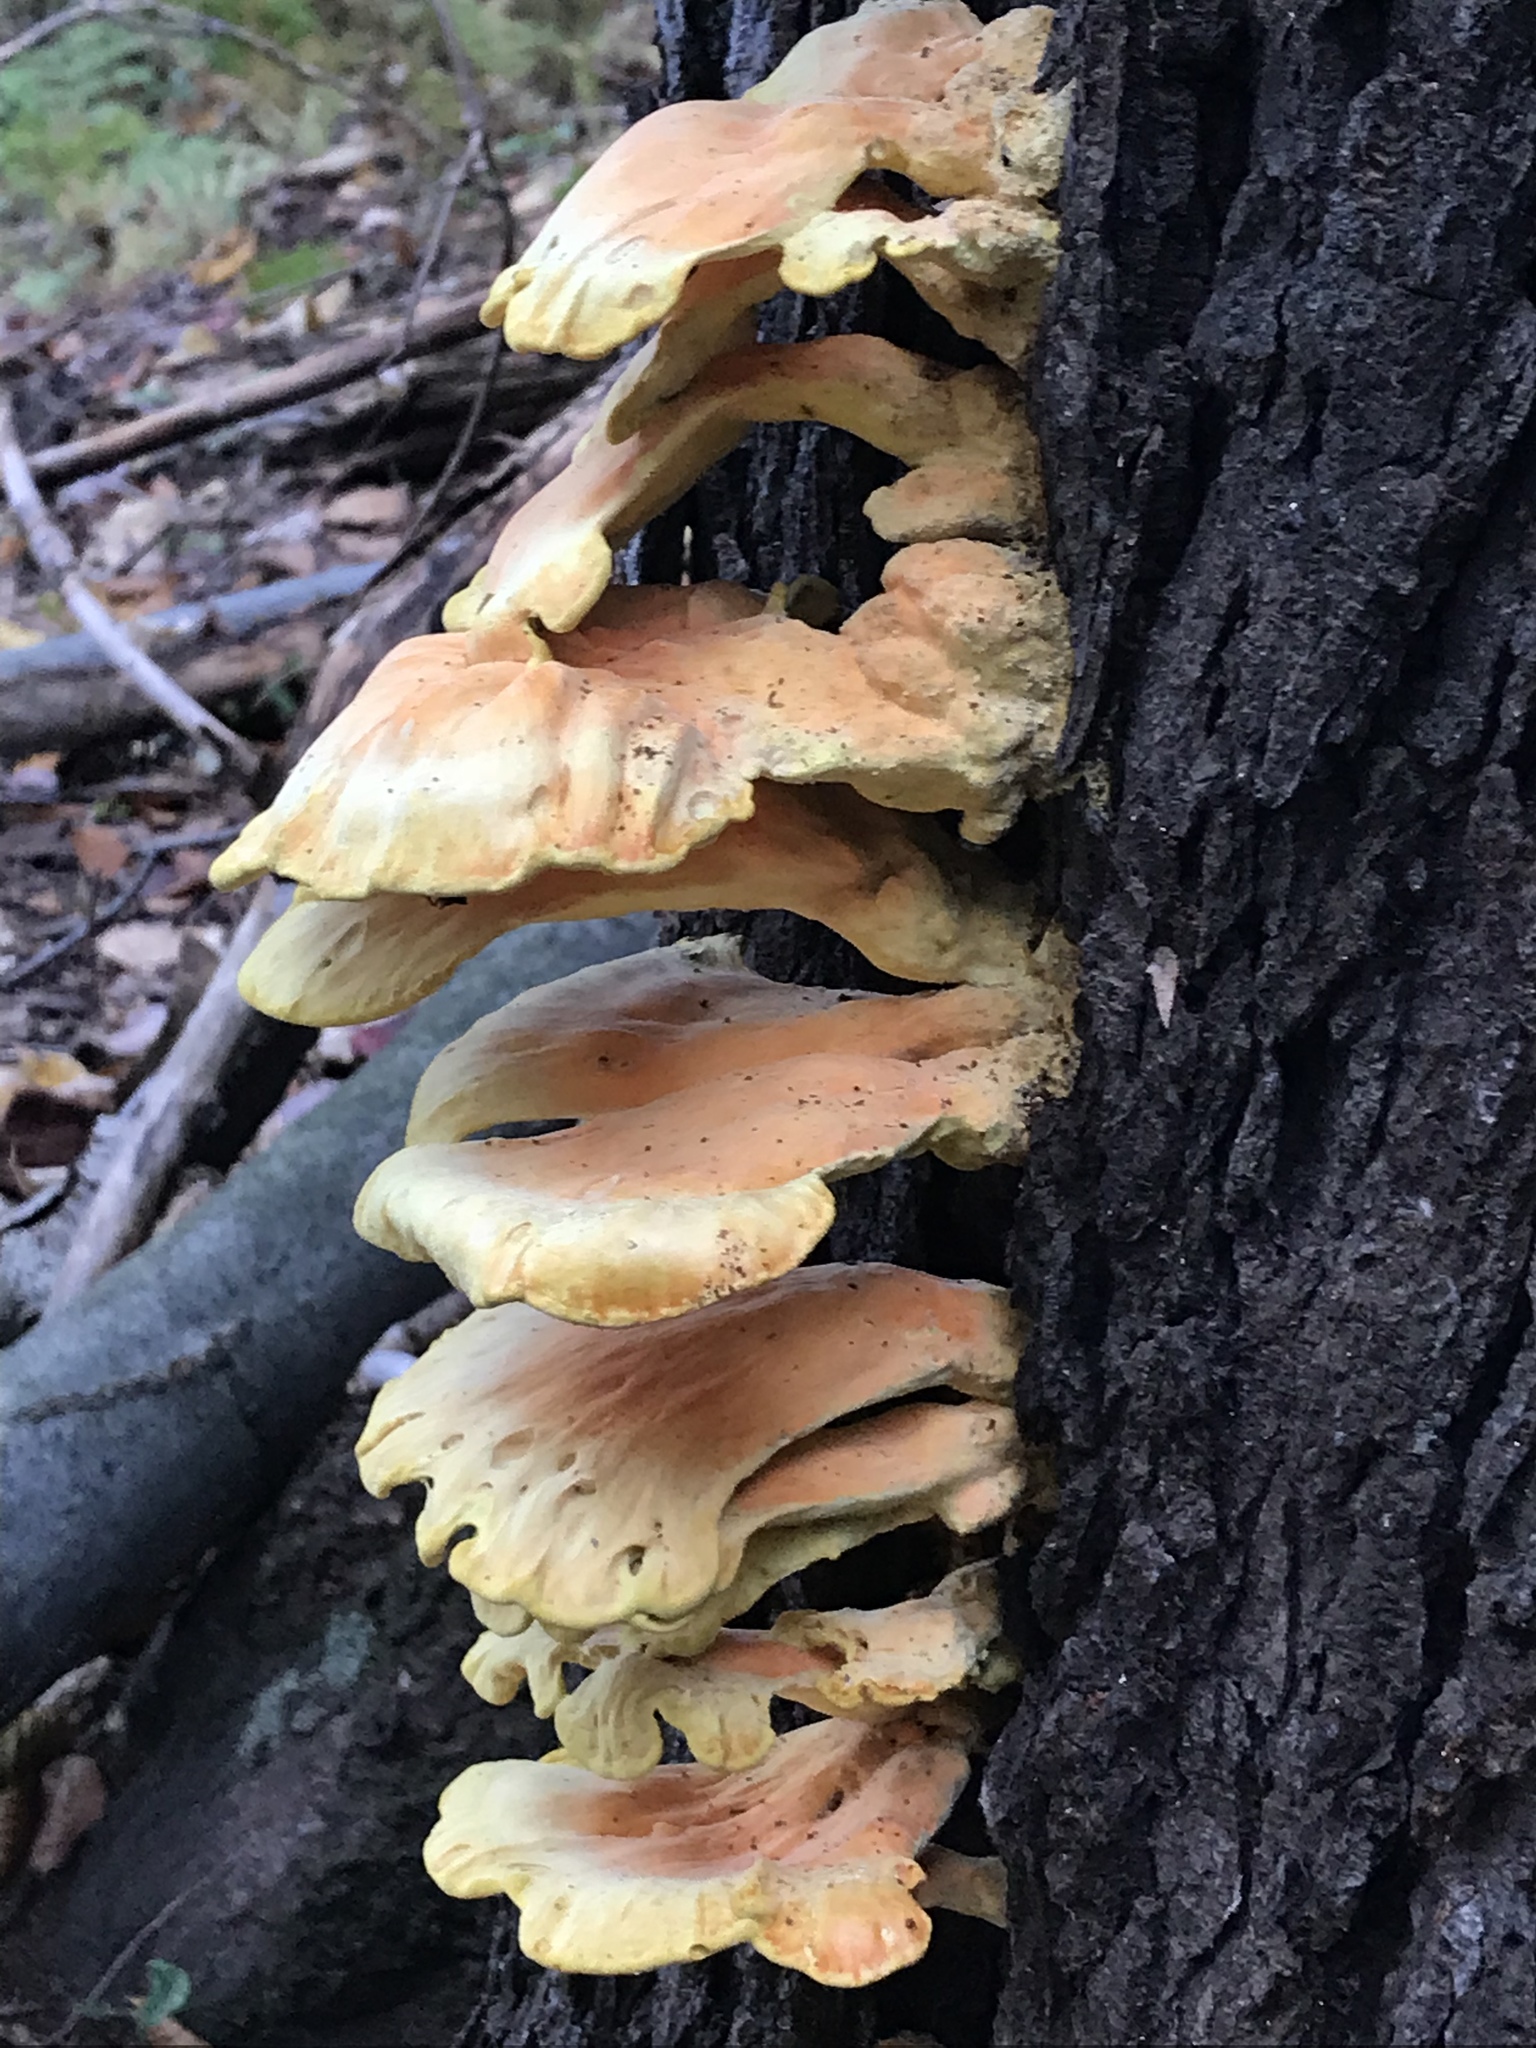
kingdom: Fungi
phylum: Basidiomycota
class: Agaricomycetes
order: Polyporales
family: Laetiporaceae
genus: Laetiporus
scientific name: Laetiporus sulphureus
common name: Chicken of the woods
